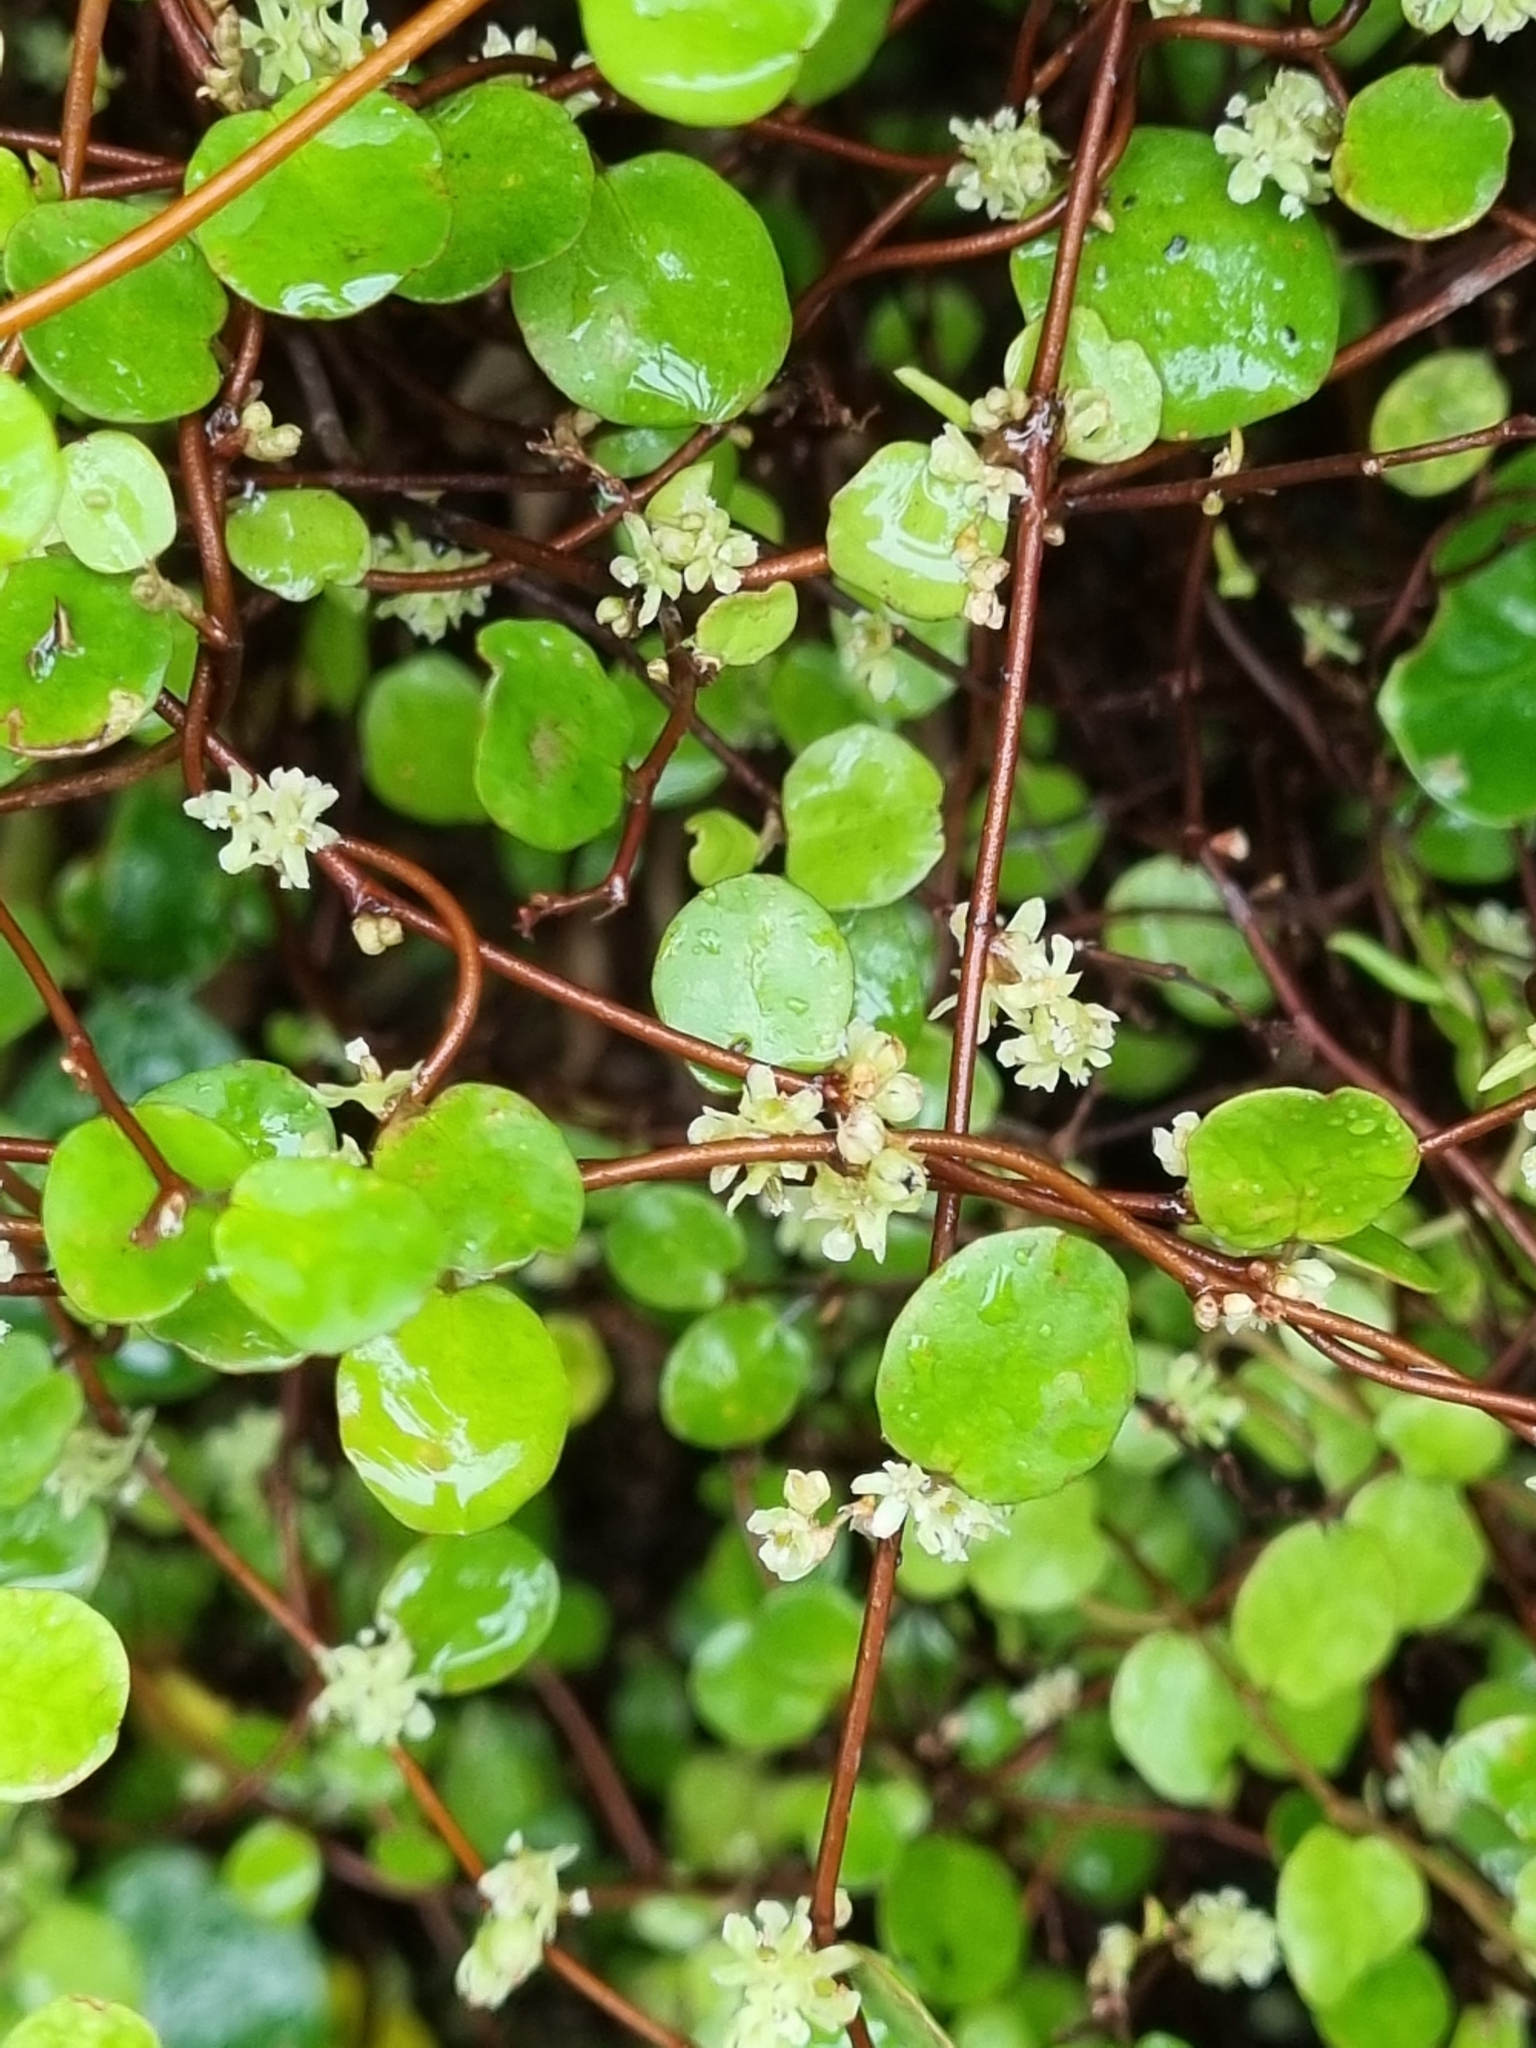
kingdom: Plantae
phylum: Tracheophyta
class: Magnoliopsida
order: Caryophyllales
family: Polygonaceae
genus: Muehlenbeckia
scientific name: Muehlenbeckia complexa
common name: Wireplant
